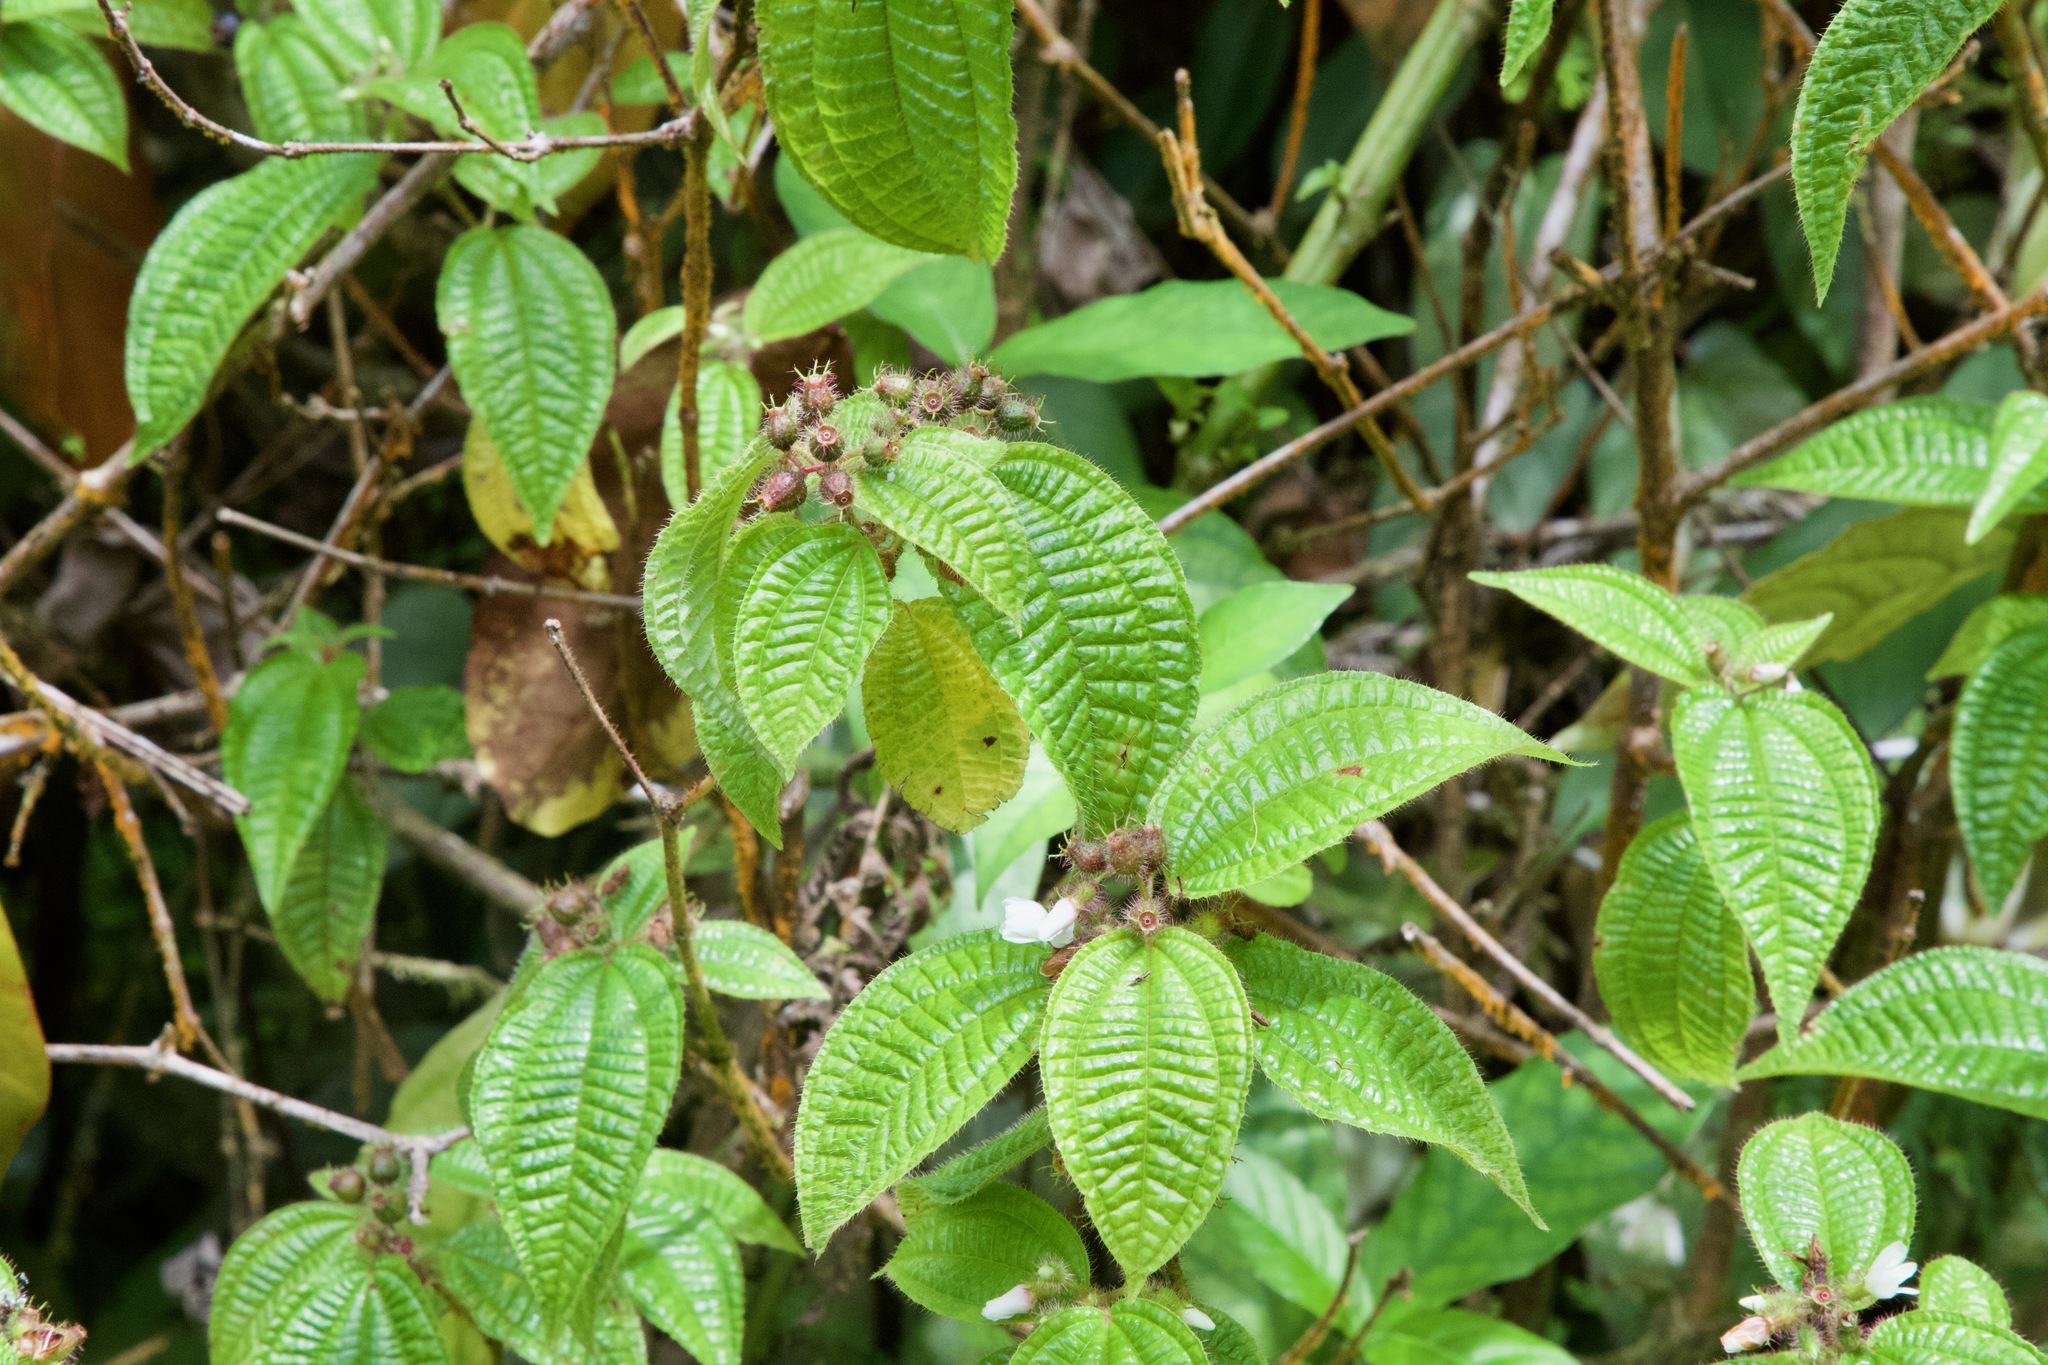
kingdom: Plantae
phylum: Tracheophyta
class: Magnoliopsida
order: Myrtales
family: Melastomataceae
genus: Miconia
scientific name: Miconia crenata
